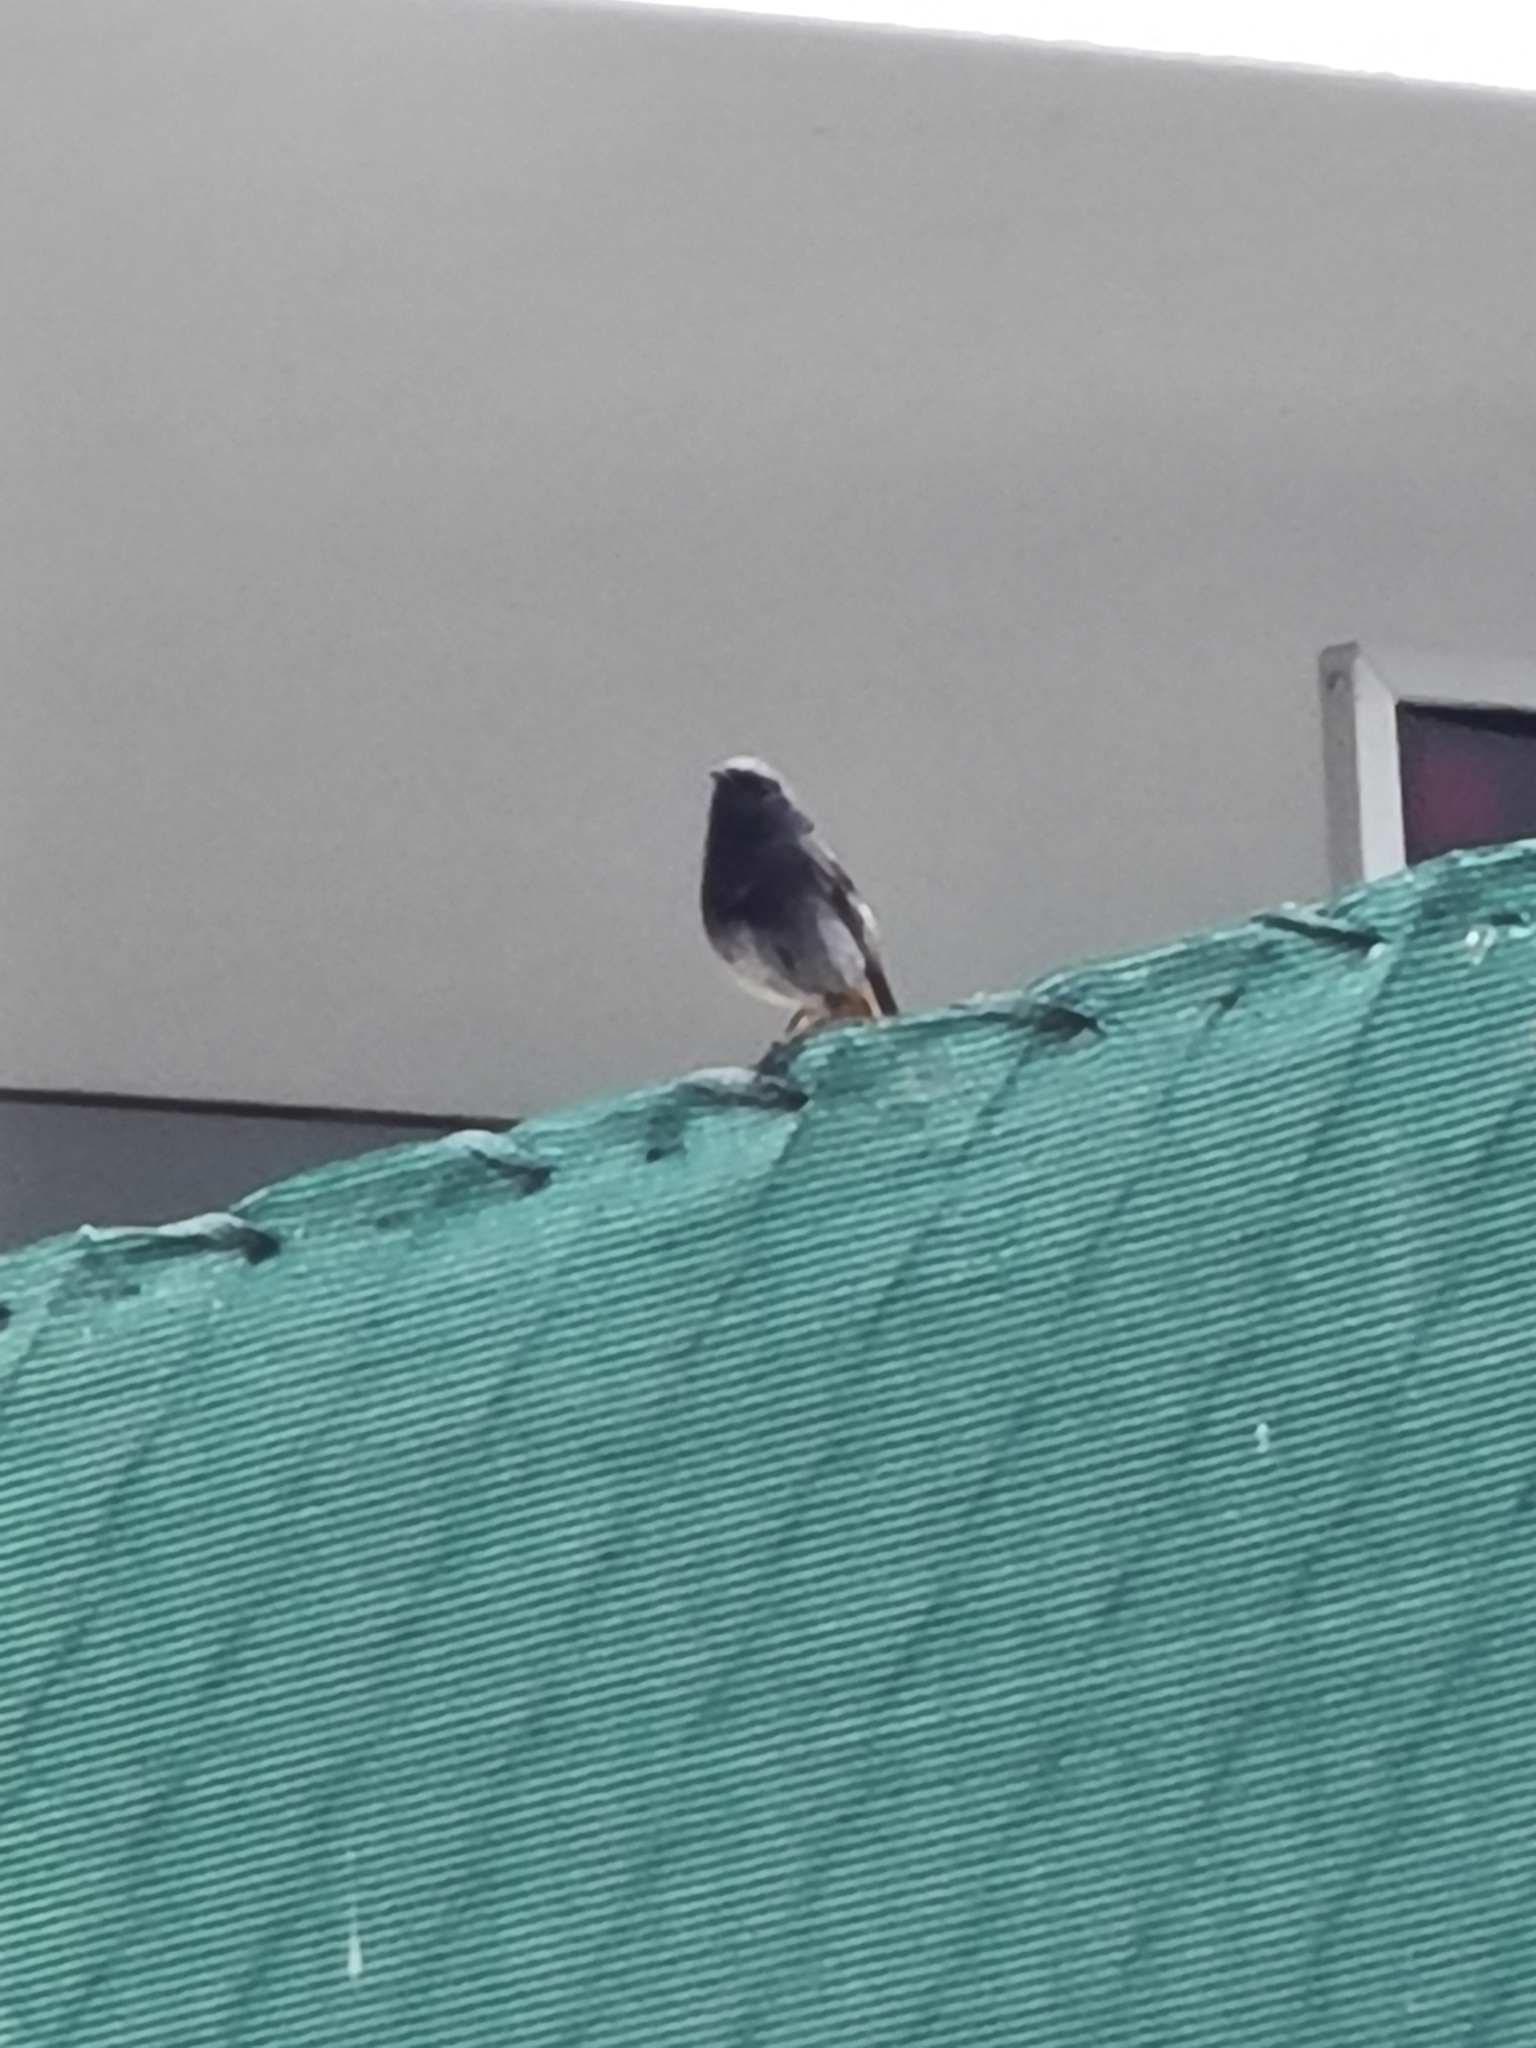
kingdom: Animalia
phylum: Chordata
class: Aves
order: Passeriformes
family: Muscicapidae
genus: Phoenicurus
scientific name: Phoenicurus ochruros
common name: Black redstart
